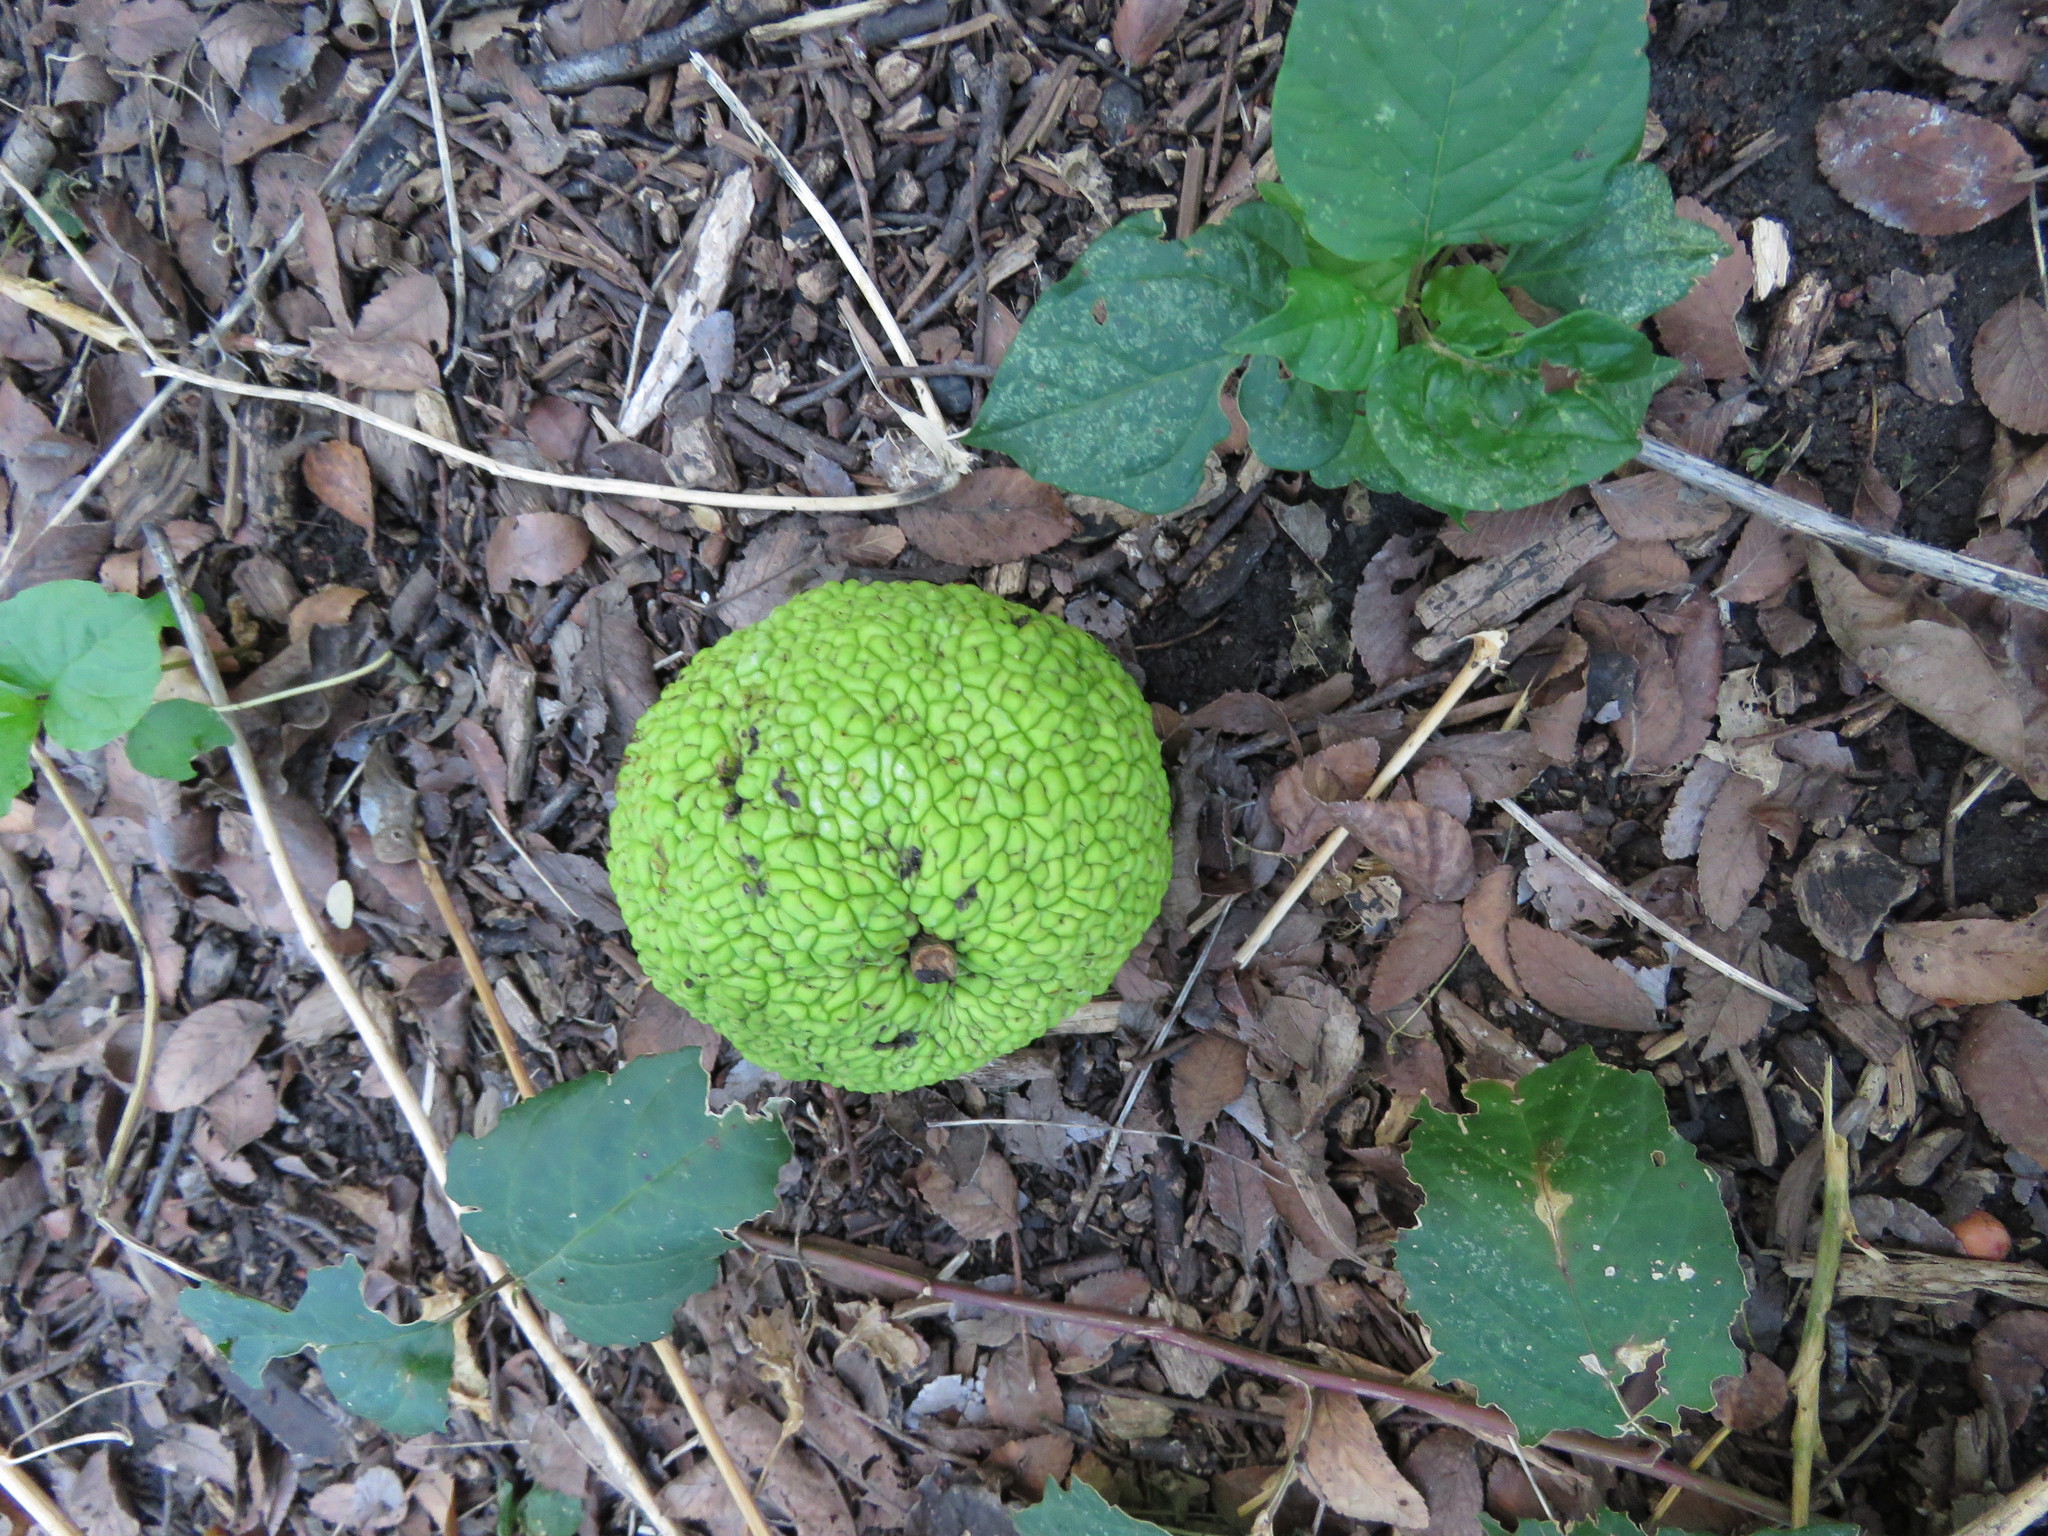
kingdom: Plantae
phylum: Tracheophyta
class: Magnoliopsida
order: Rosales
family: Moraceae
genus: Maclura
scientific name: Maclura pomifera
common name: Osage-orange
